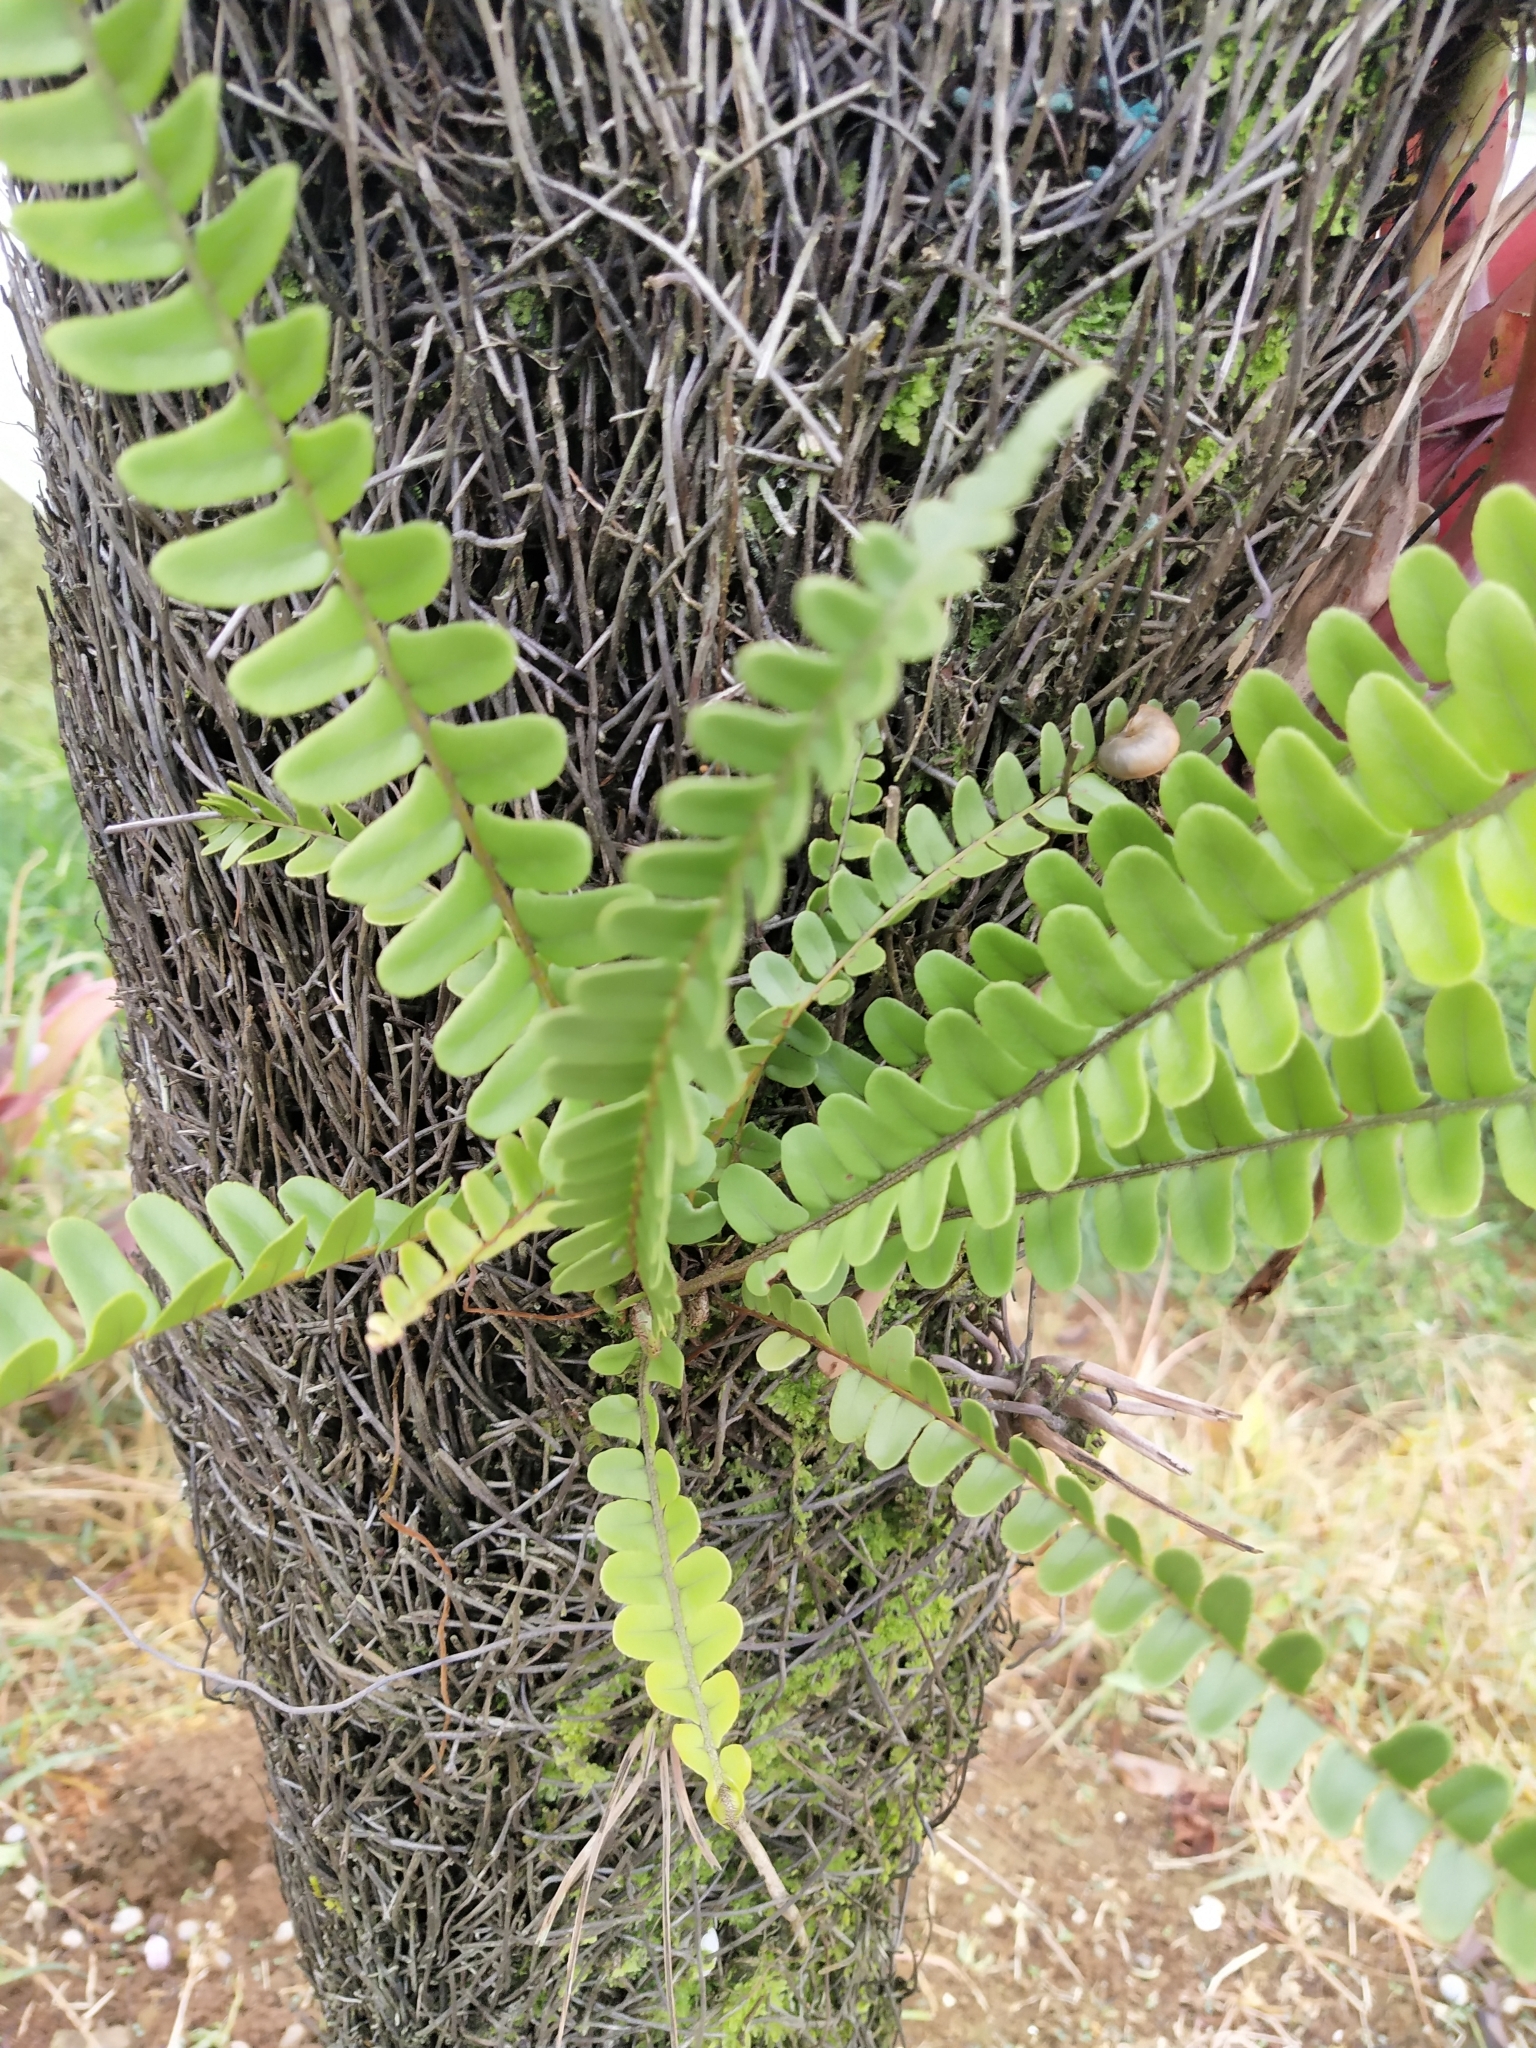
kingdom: Plantae
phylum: Tracheophyta
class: Polypodiopsida
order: Polypodiales
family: Nephrolepidaceae
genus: Nephrolepis
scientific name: Nephrolepis cordifolia
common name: Narrow swordfern
